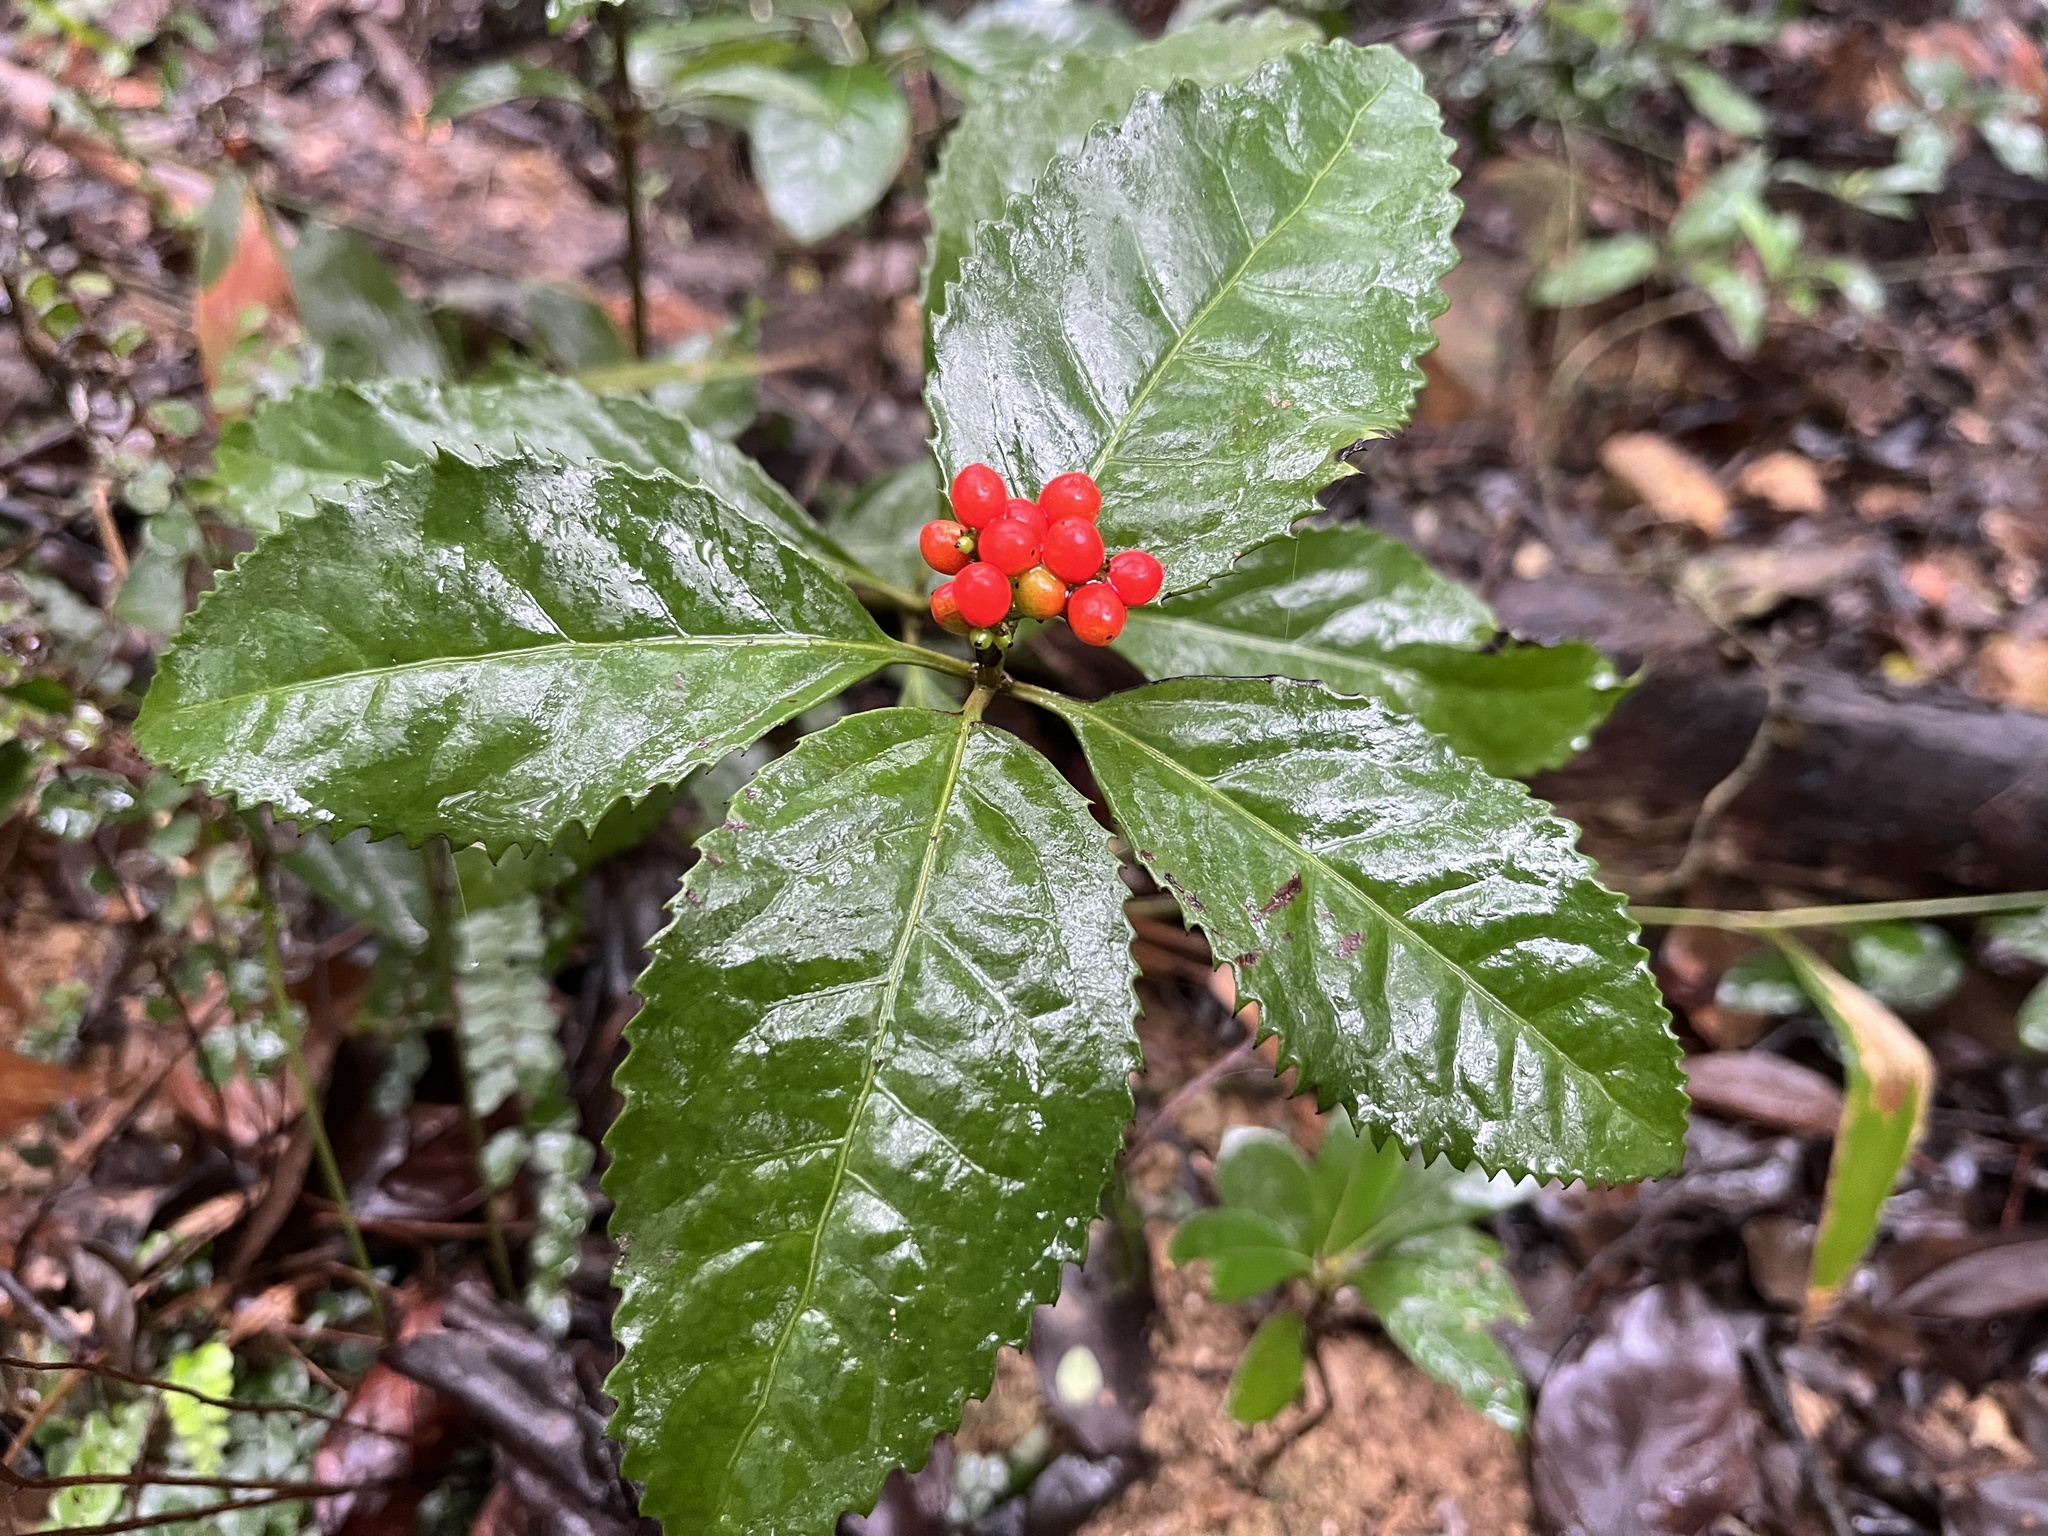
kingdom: Plantae
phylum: Tracheophyta
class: Magnoliopsida
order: Chloranthales
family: Chloranthaceae
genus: Sarcandra
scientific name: Sarcandra glabra
